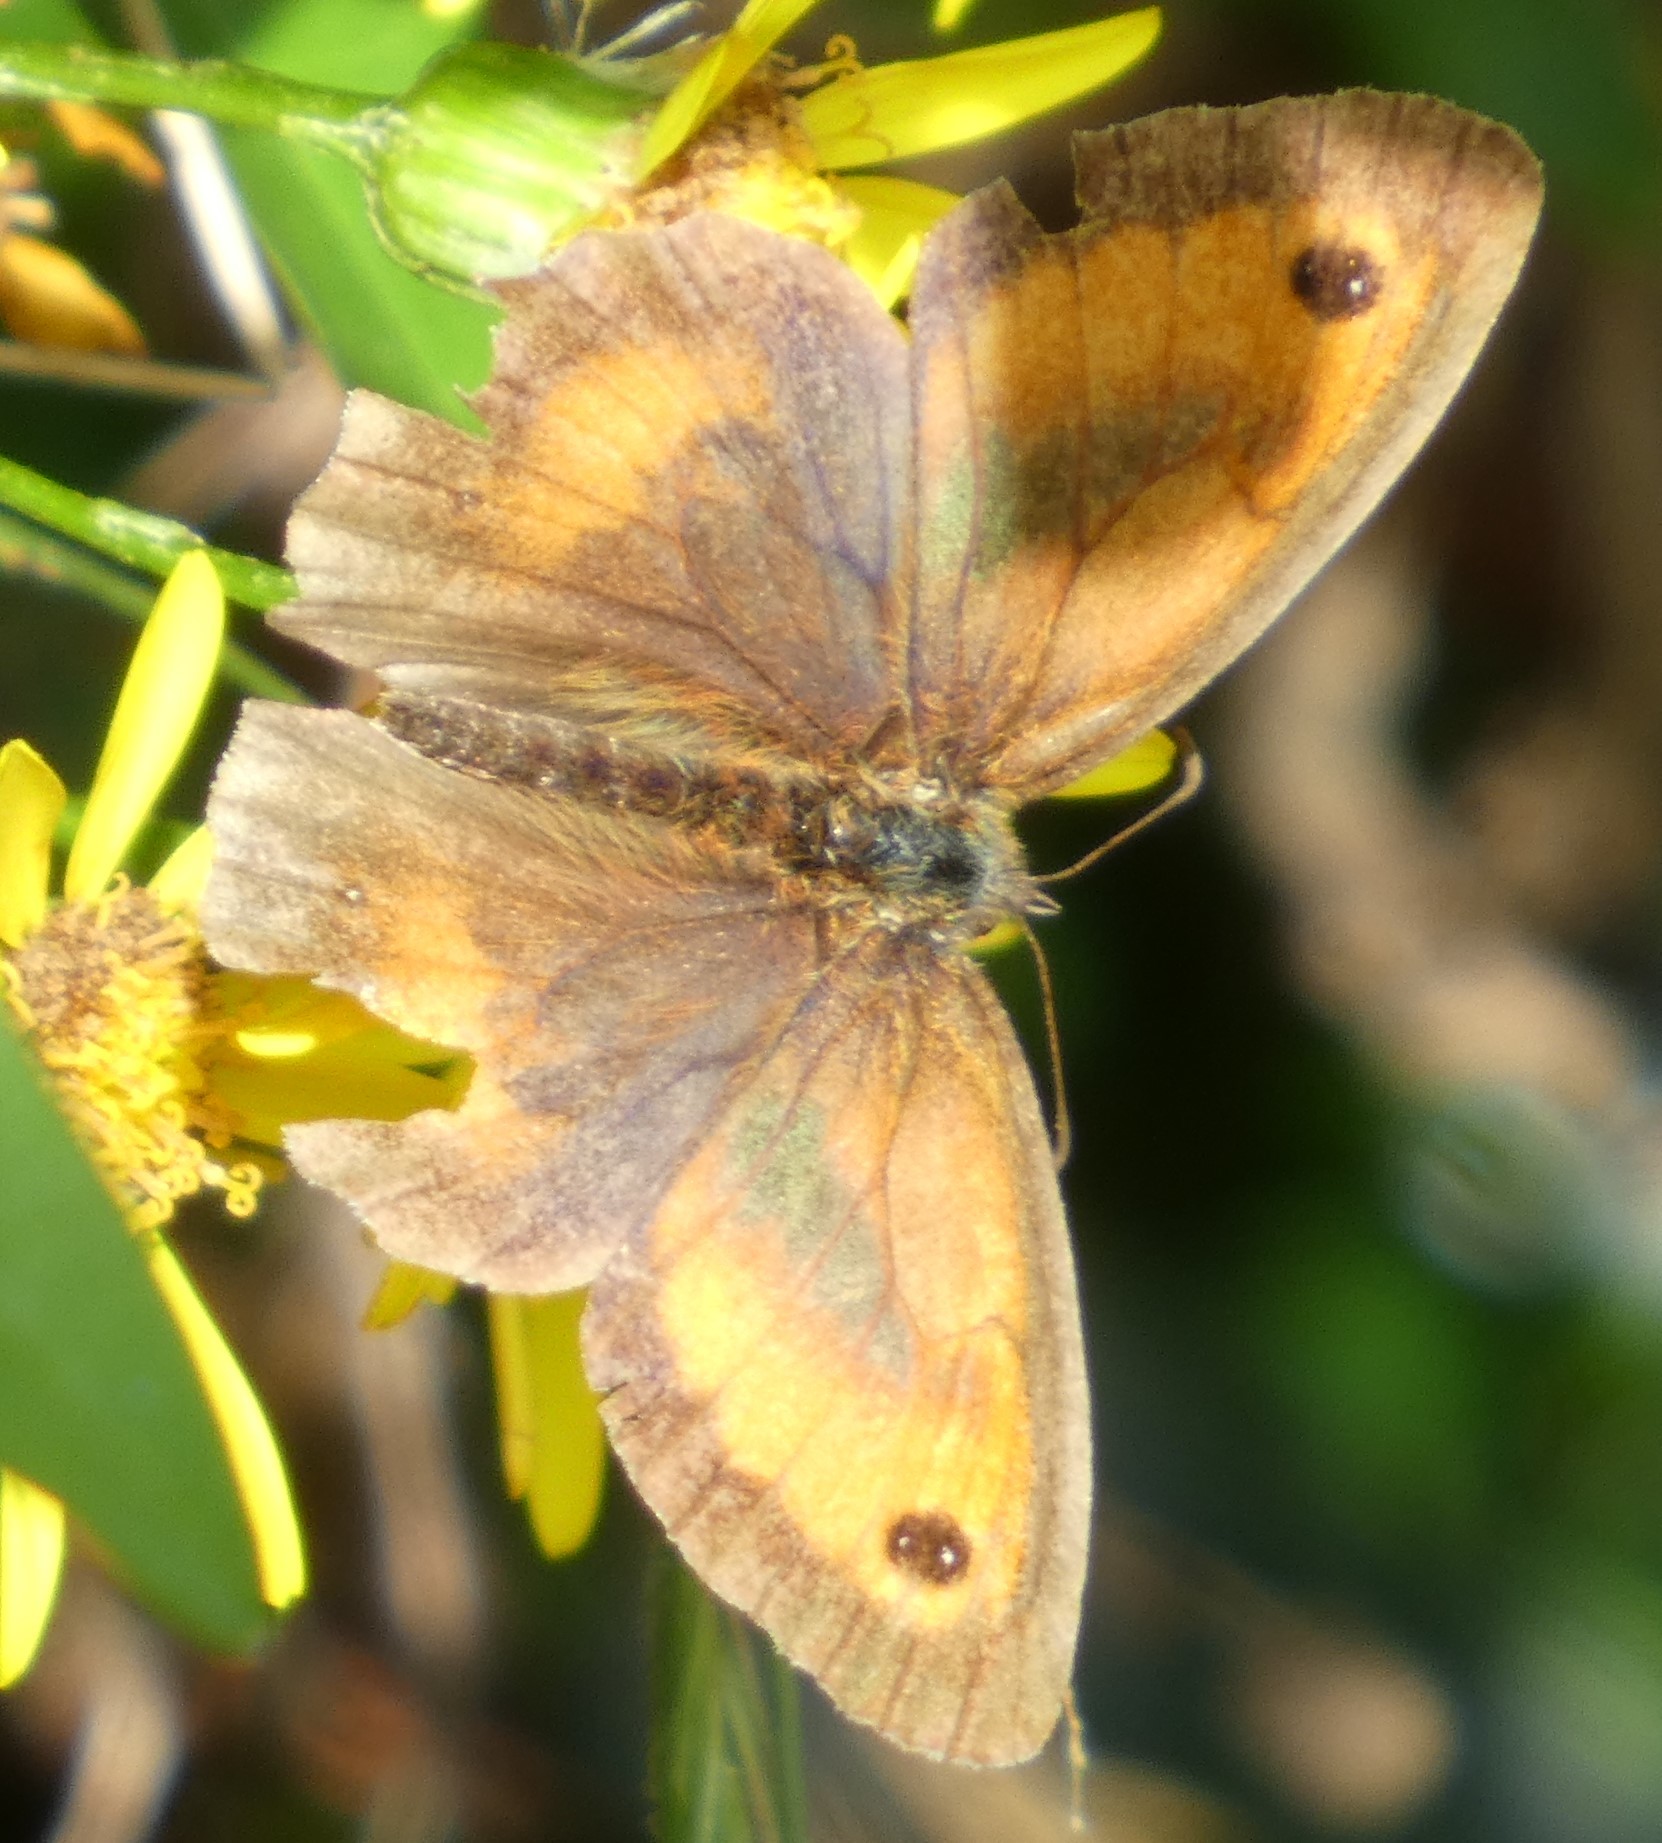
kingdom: Animalia
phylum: Arthropoda
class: Insecta
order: Lepidoptera
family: Nymphalidae
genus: Pyronia
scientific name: Pyronia tithonus
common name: Gatekeeper
